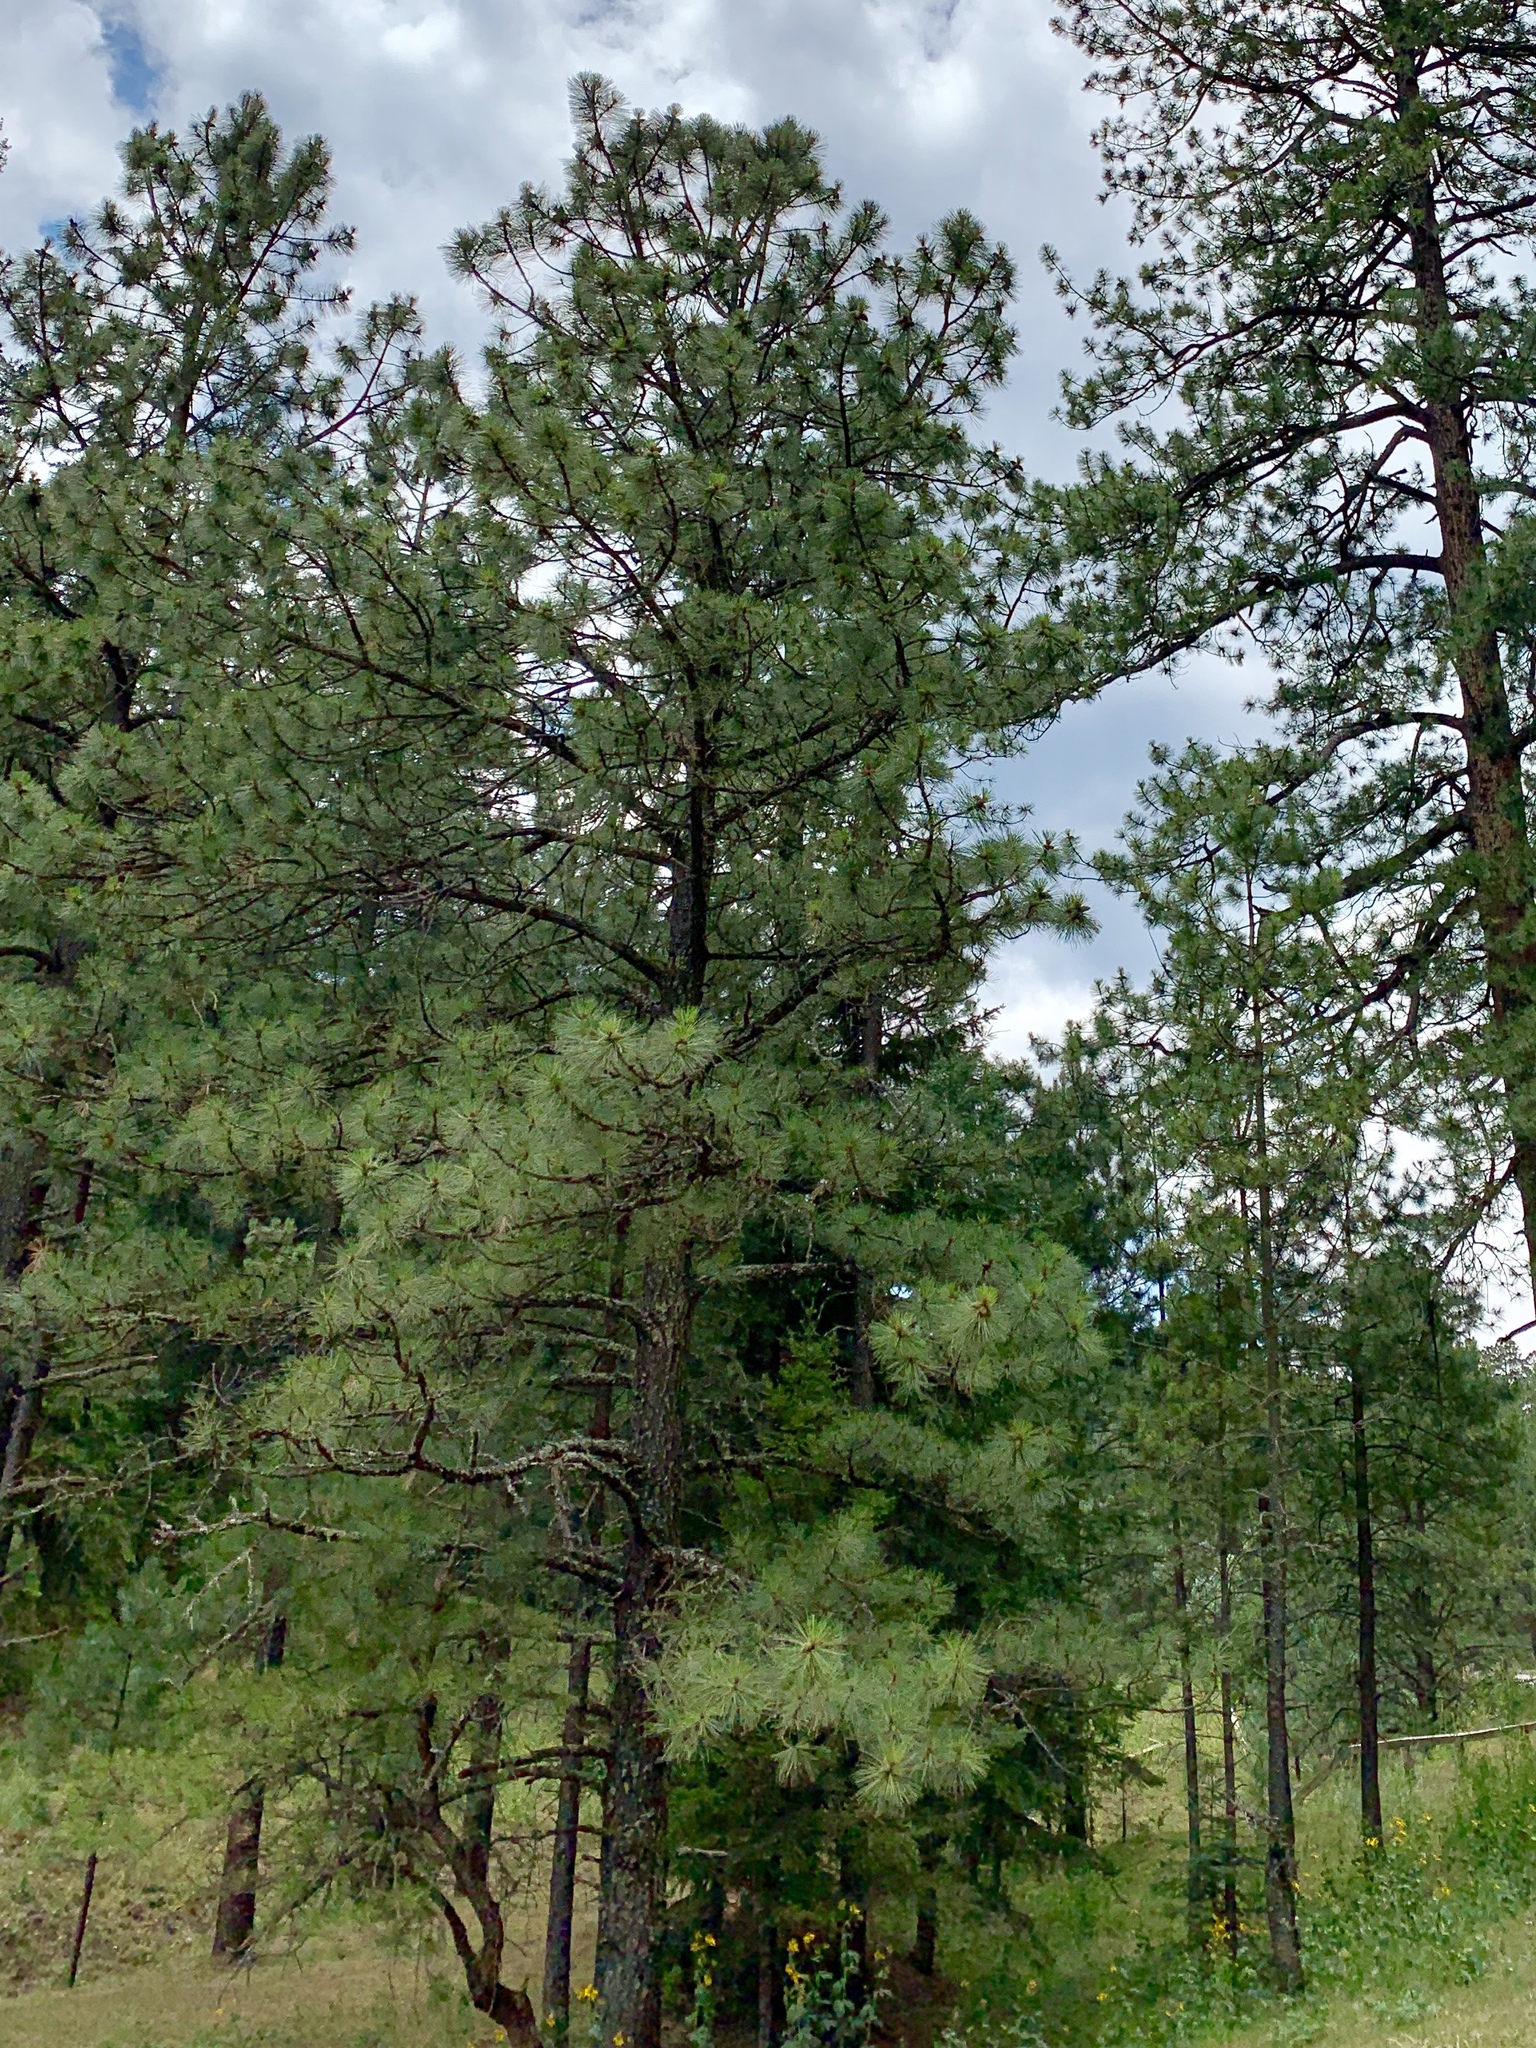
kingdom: Plantae
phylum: Tracheophyta
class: Pinopsida
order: Pinales
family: Pinaceae
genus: Pinus
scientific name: Pinus ponderosa
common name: Western yellow-pine
